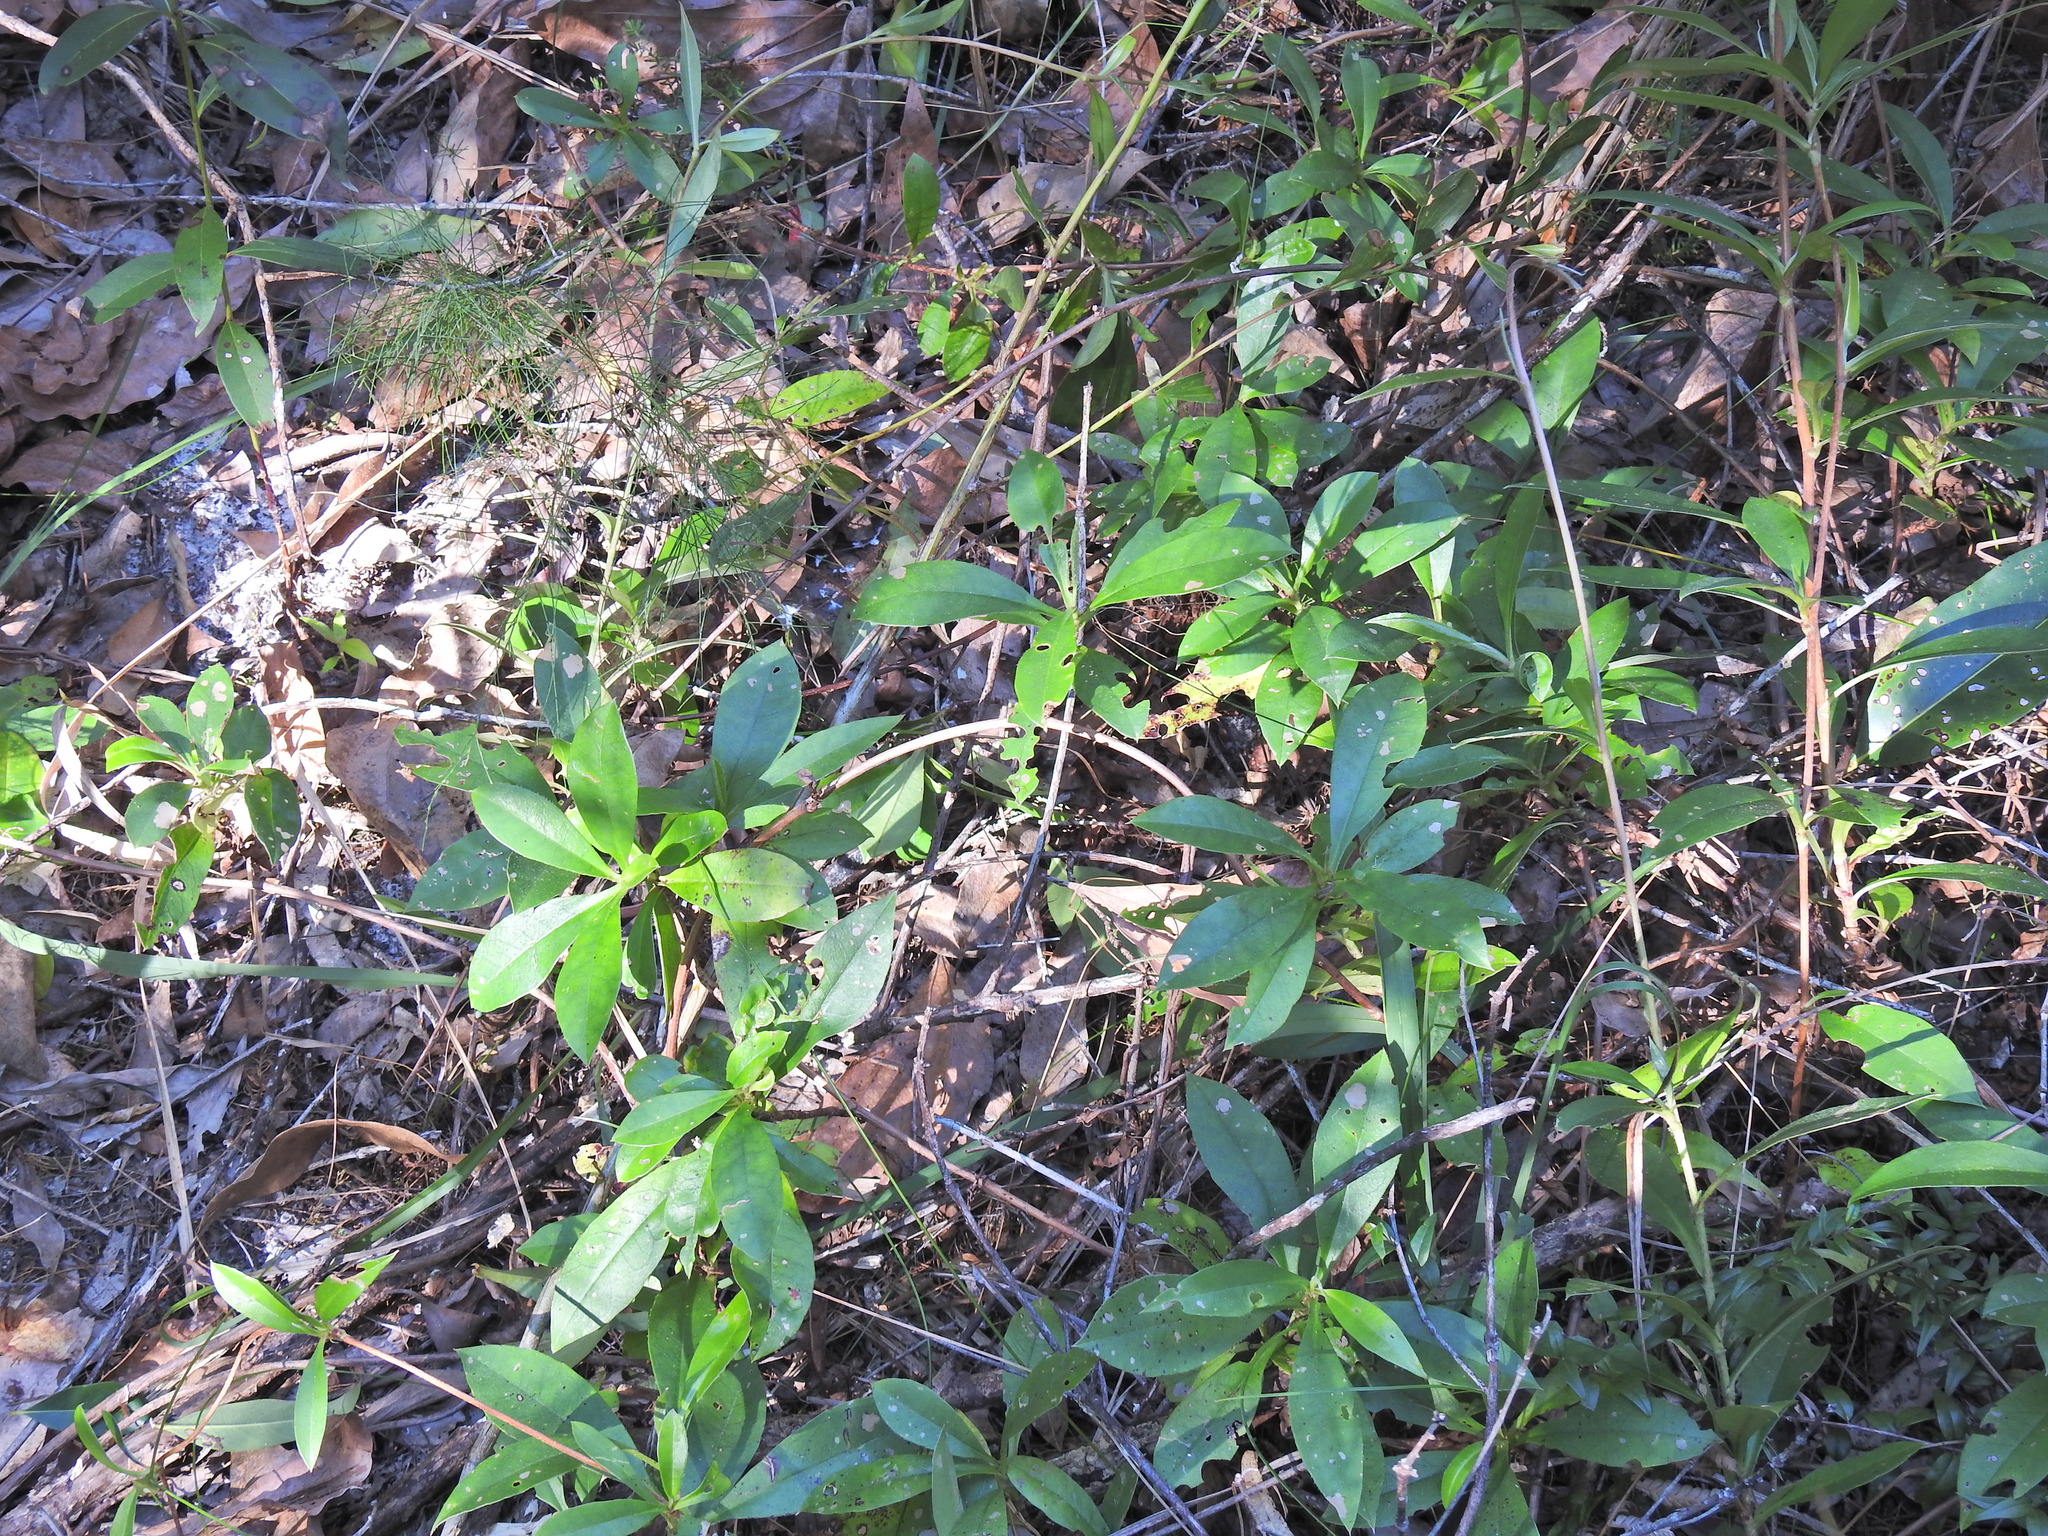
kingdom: Plantae
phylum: Tracheophyta
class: Magnoliopsida
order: Dilleniales
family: Dilleniaceae
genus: Hibbertia
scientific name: Hibbertia scandens
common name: Climbing guinea-flower
